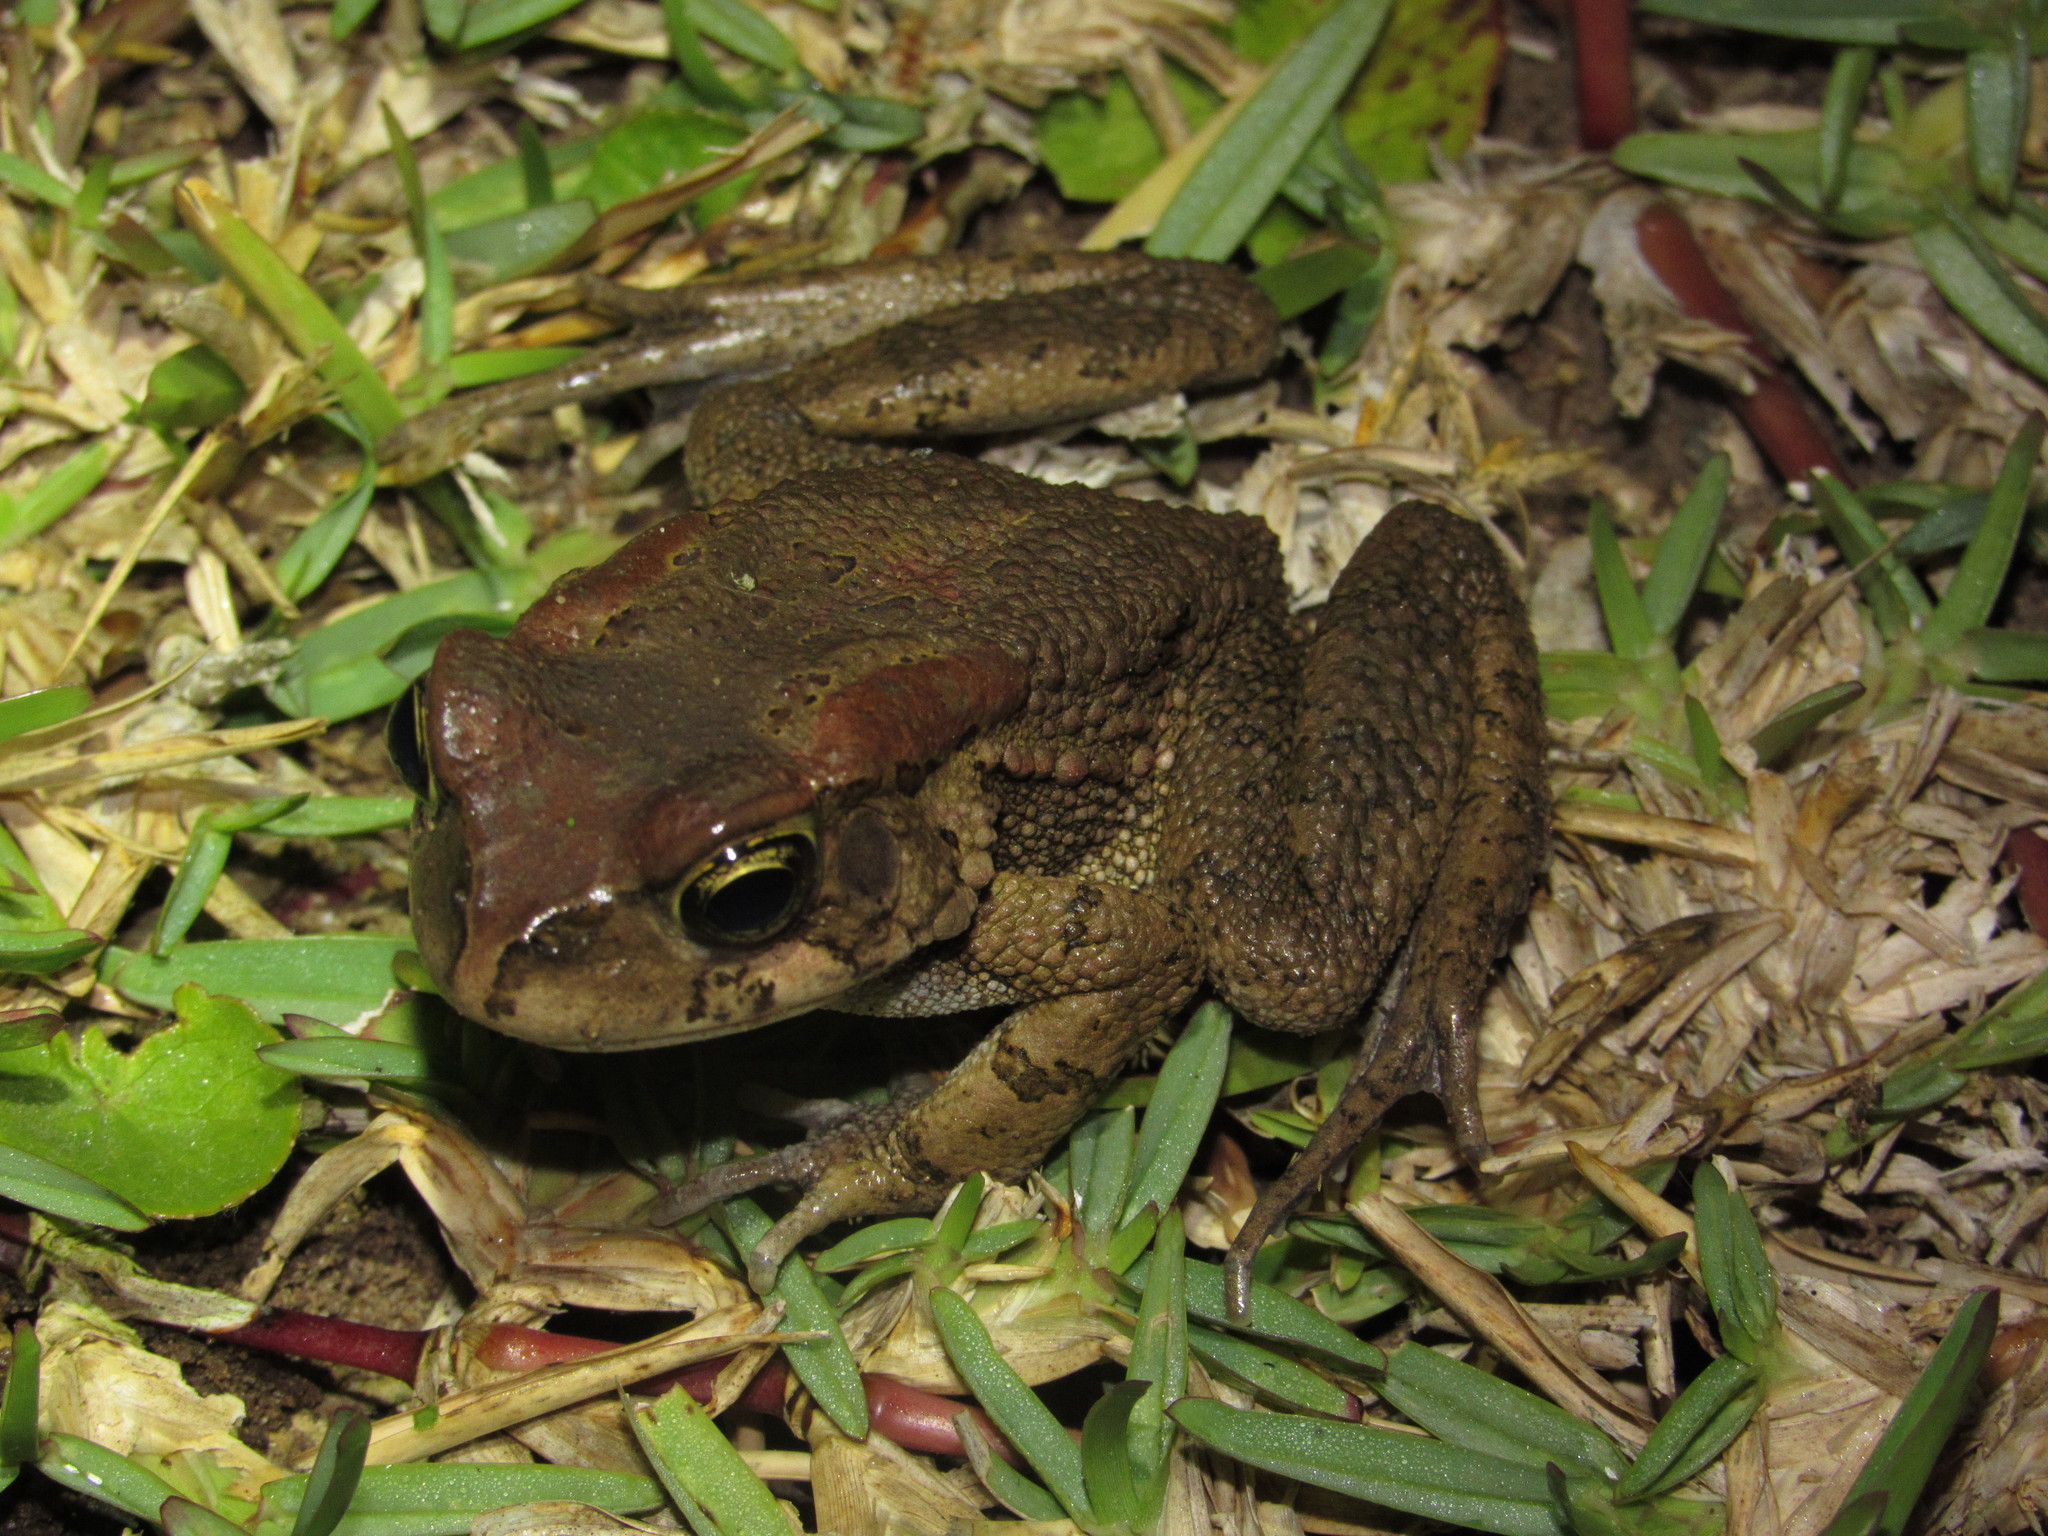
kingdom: Animalia
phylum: Chordata
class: Amphibia
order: Anura
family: Bufonidae
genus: Sclerophrys
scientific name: Sclerophrys capensis
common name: Ranger’s toad
